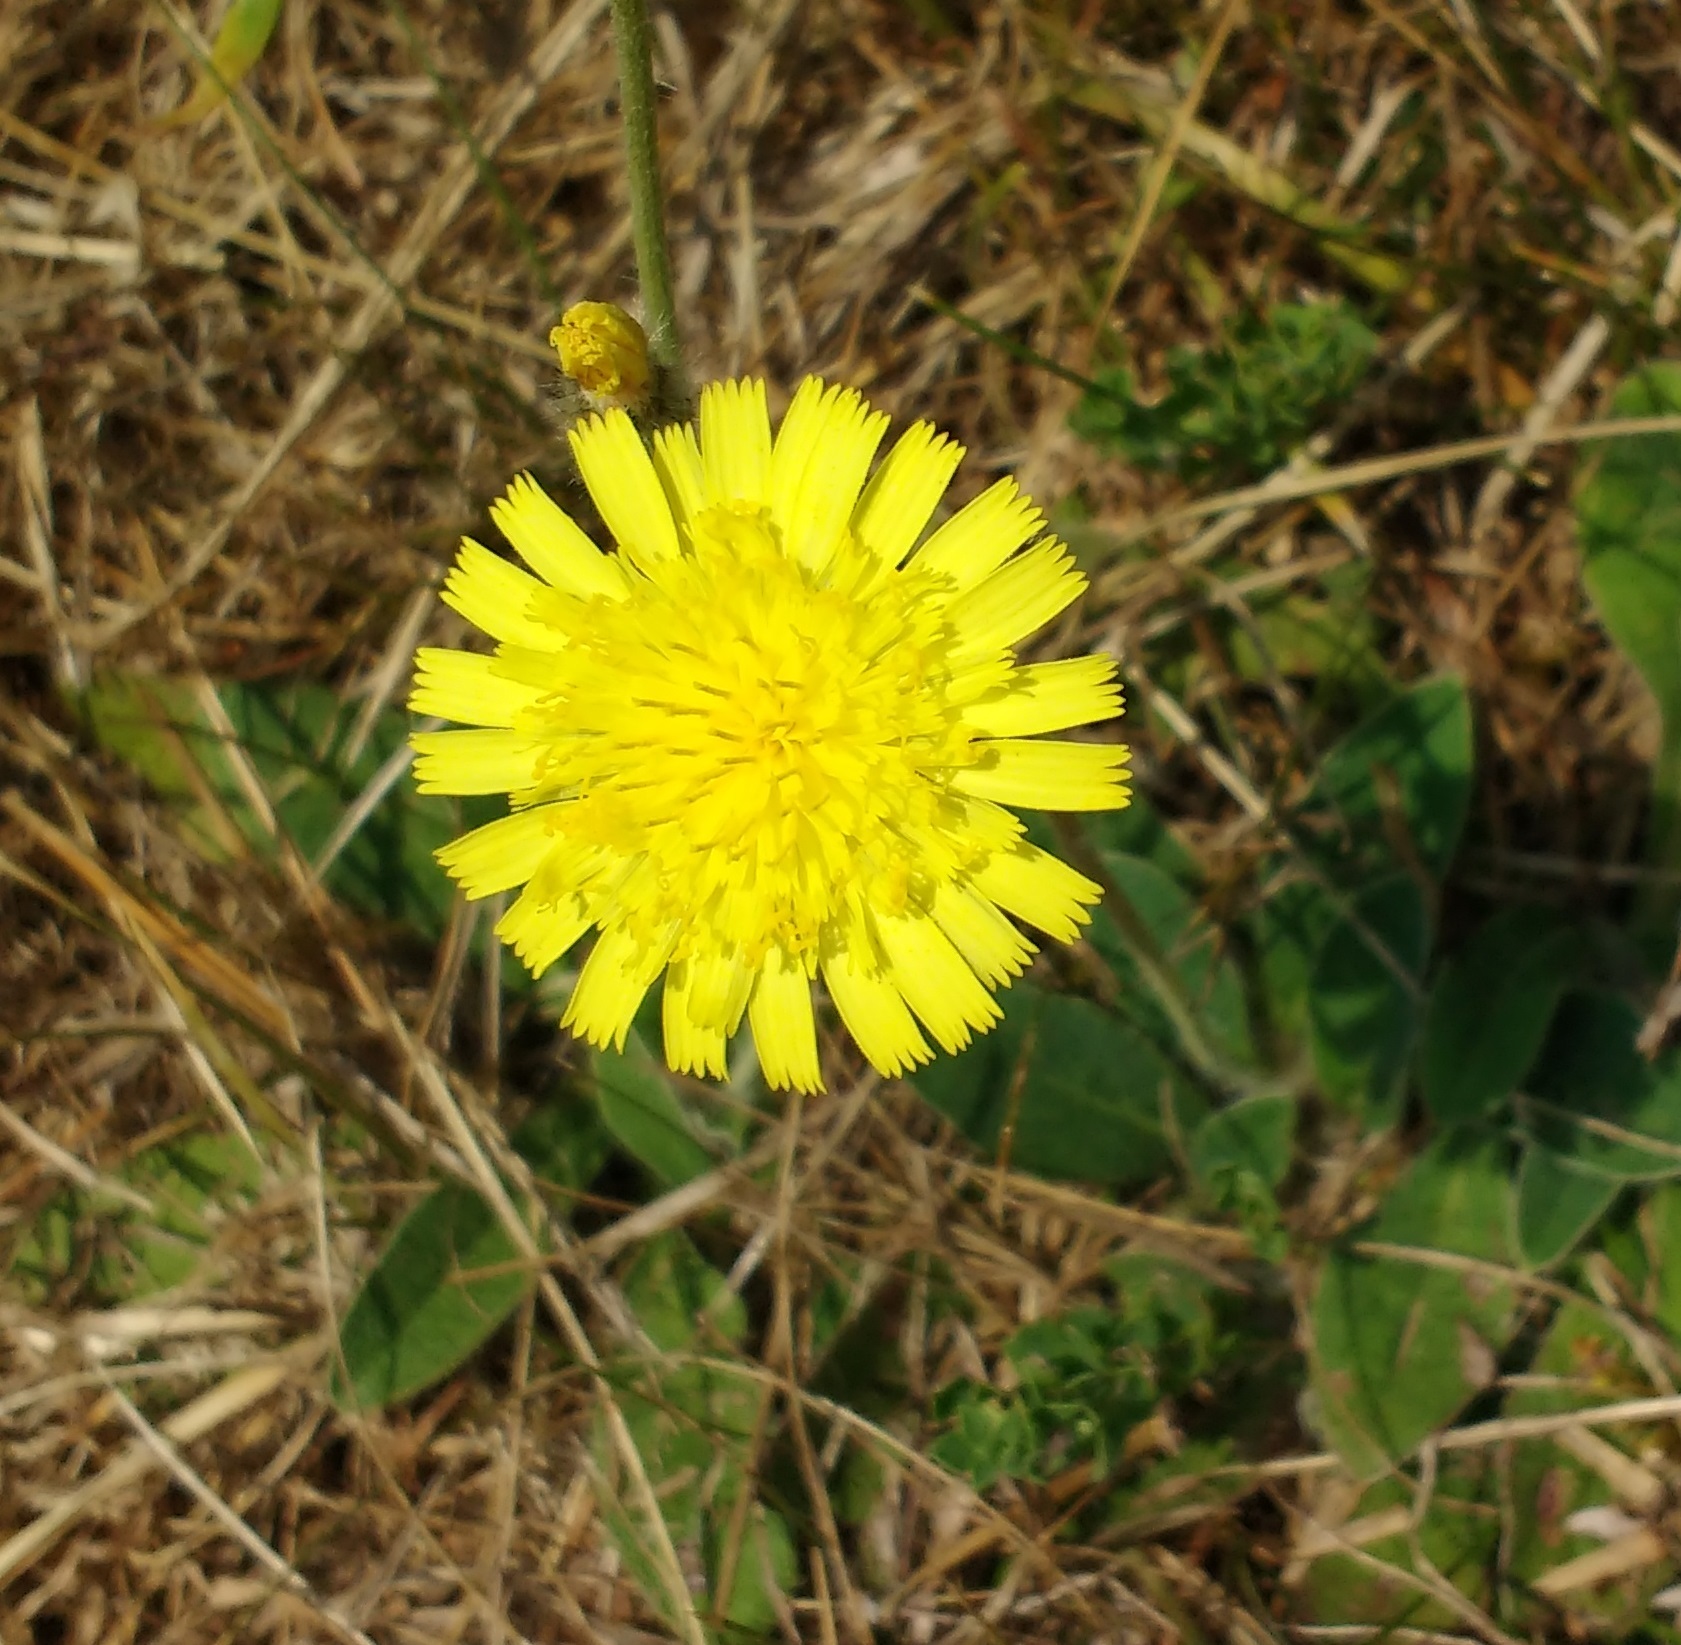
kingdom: Plantae
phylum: Tracheophyta
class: Magnoliopsida
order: Asterales
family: Asteraceae
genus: Pilosella
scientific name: Pilosella officinarum
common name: Mouse-ear hawkweed
